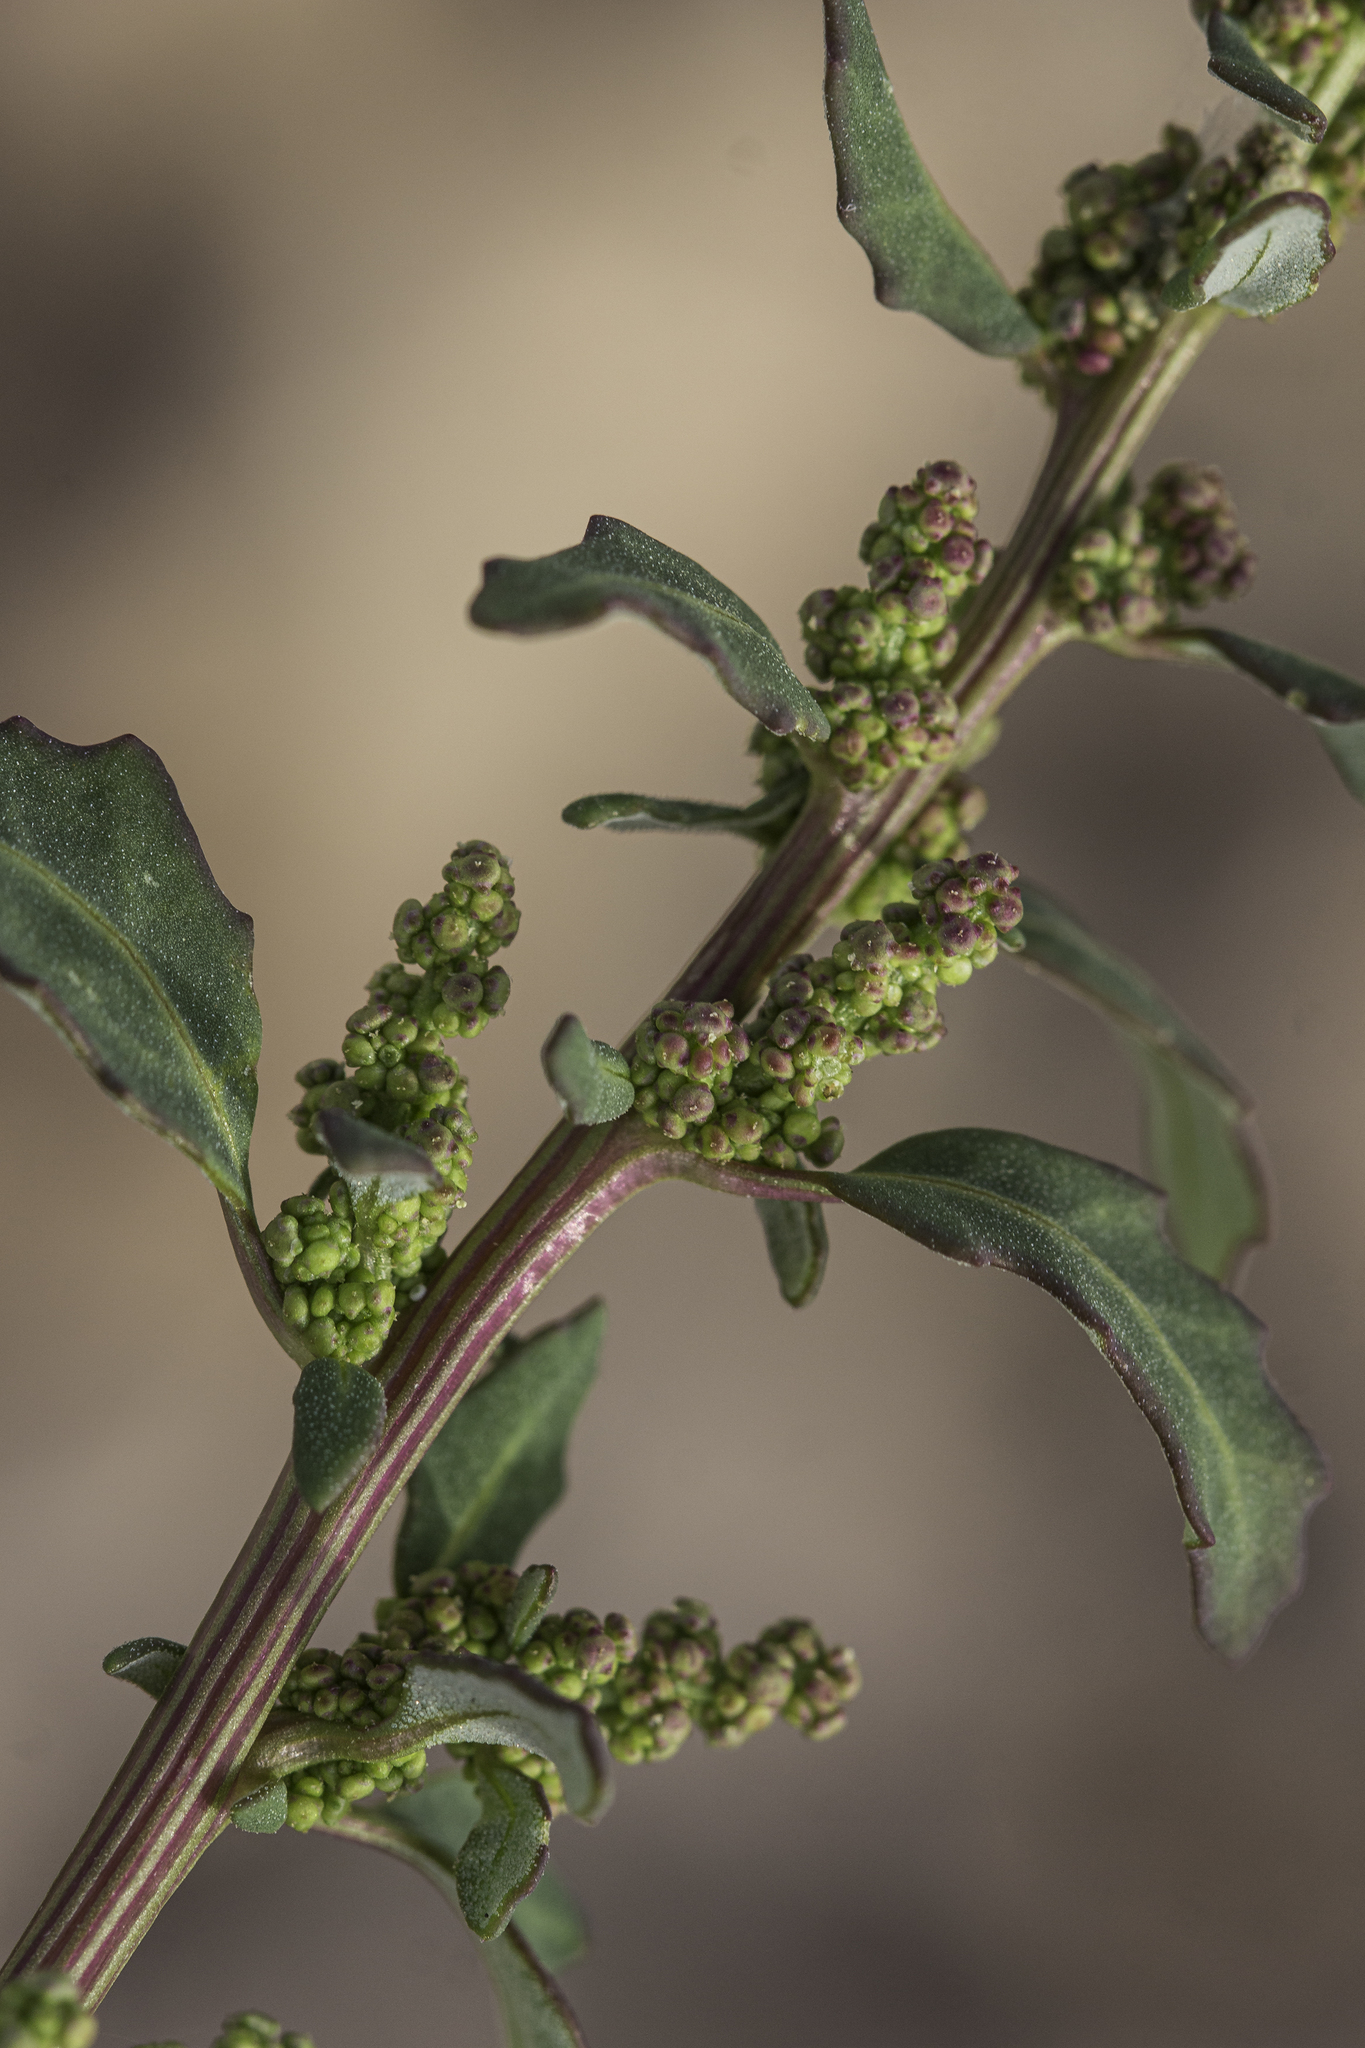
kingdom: Plantae
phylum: Tracheophyta
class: Magnoliopsida
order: Caryophyllales
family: Amaranthaceae
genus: Oxybasis
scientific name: Oxybasis glauca
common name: Glaucous goosefoot
